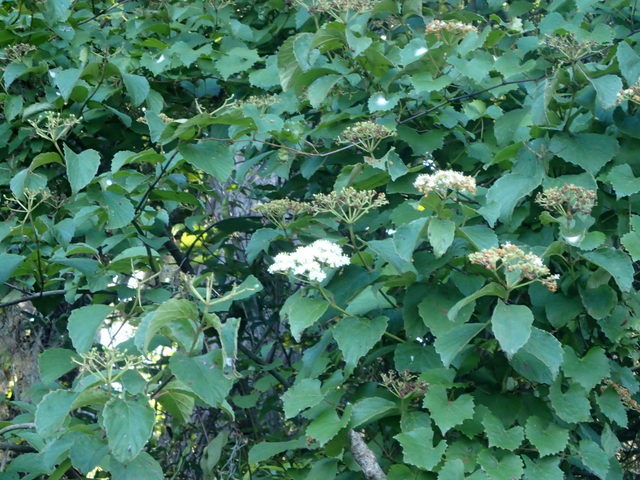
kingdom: Plantae
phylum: Tracheophyta
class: Magnoliopsida
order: Dipsacales
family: Viburnaceae
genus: Viburnum
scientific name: Viburnum scabrellum
